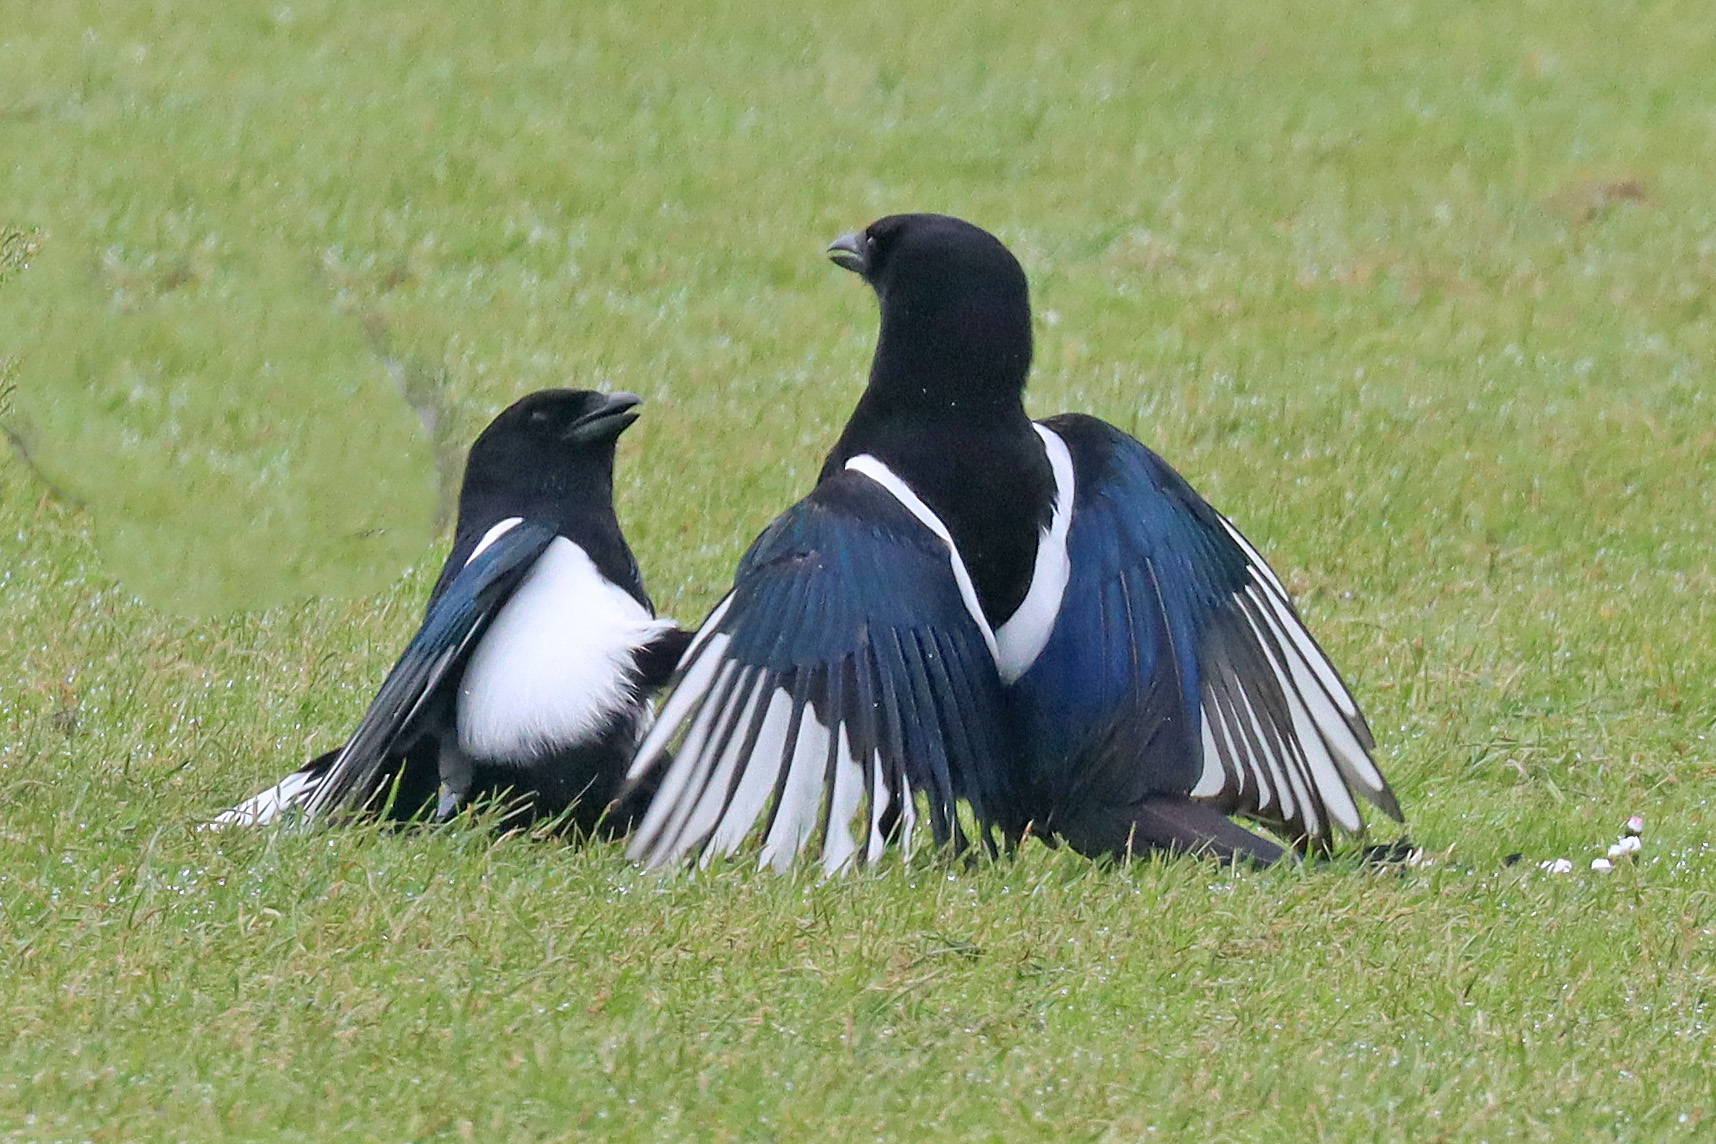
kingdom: Animalia
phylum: Chordata
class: Aves
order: Passeriformes
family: Corvidae
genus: Pica
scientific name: Pica pica
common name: Eurasian magpie
